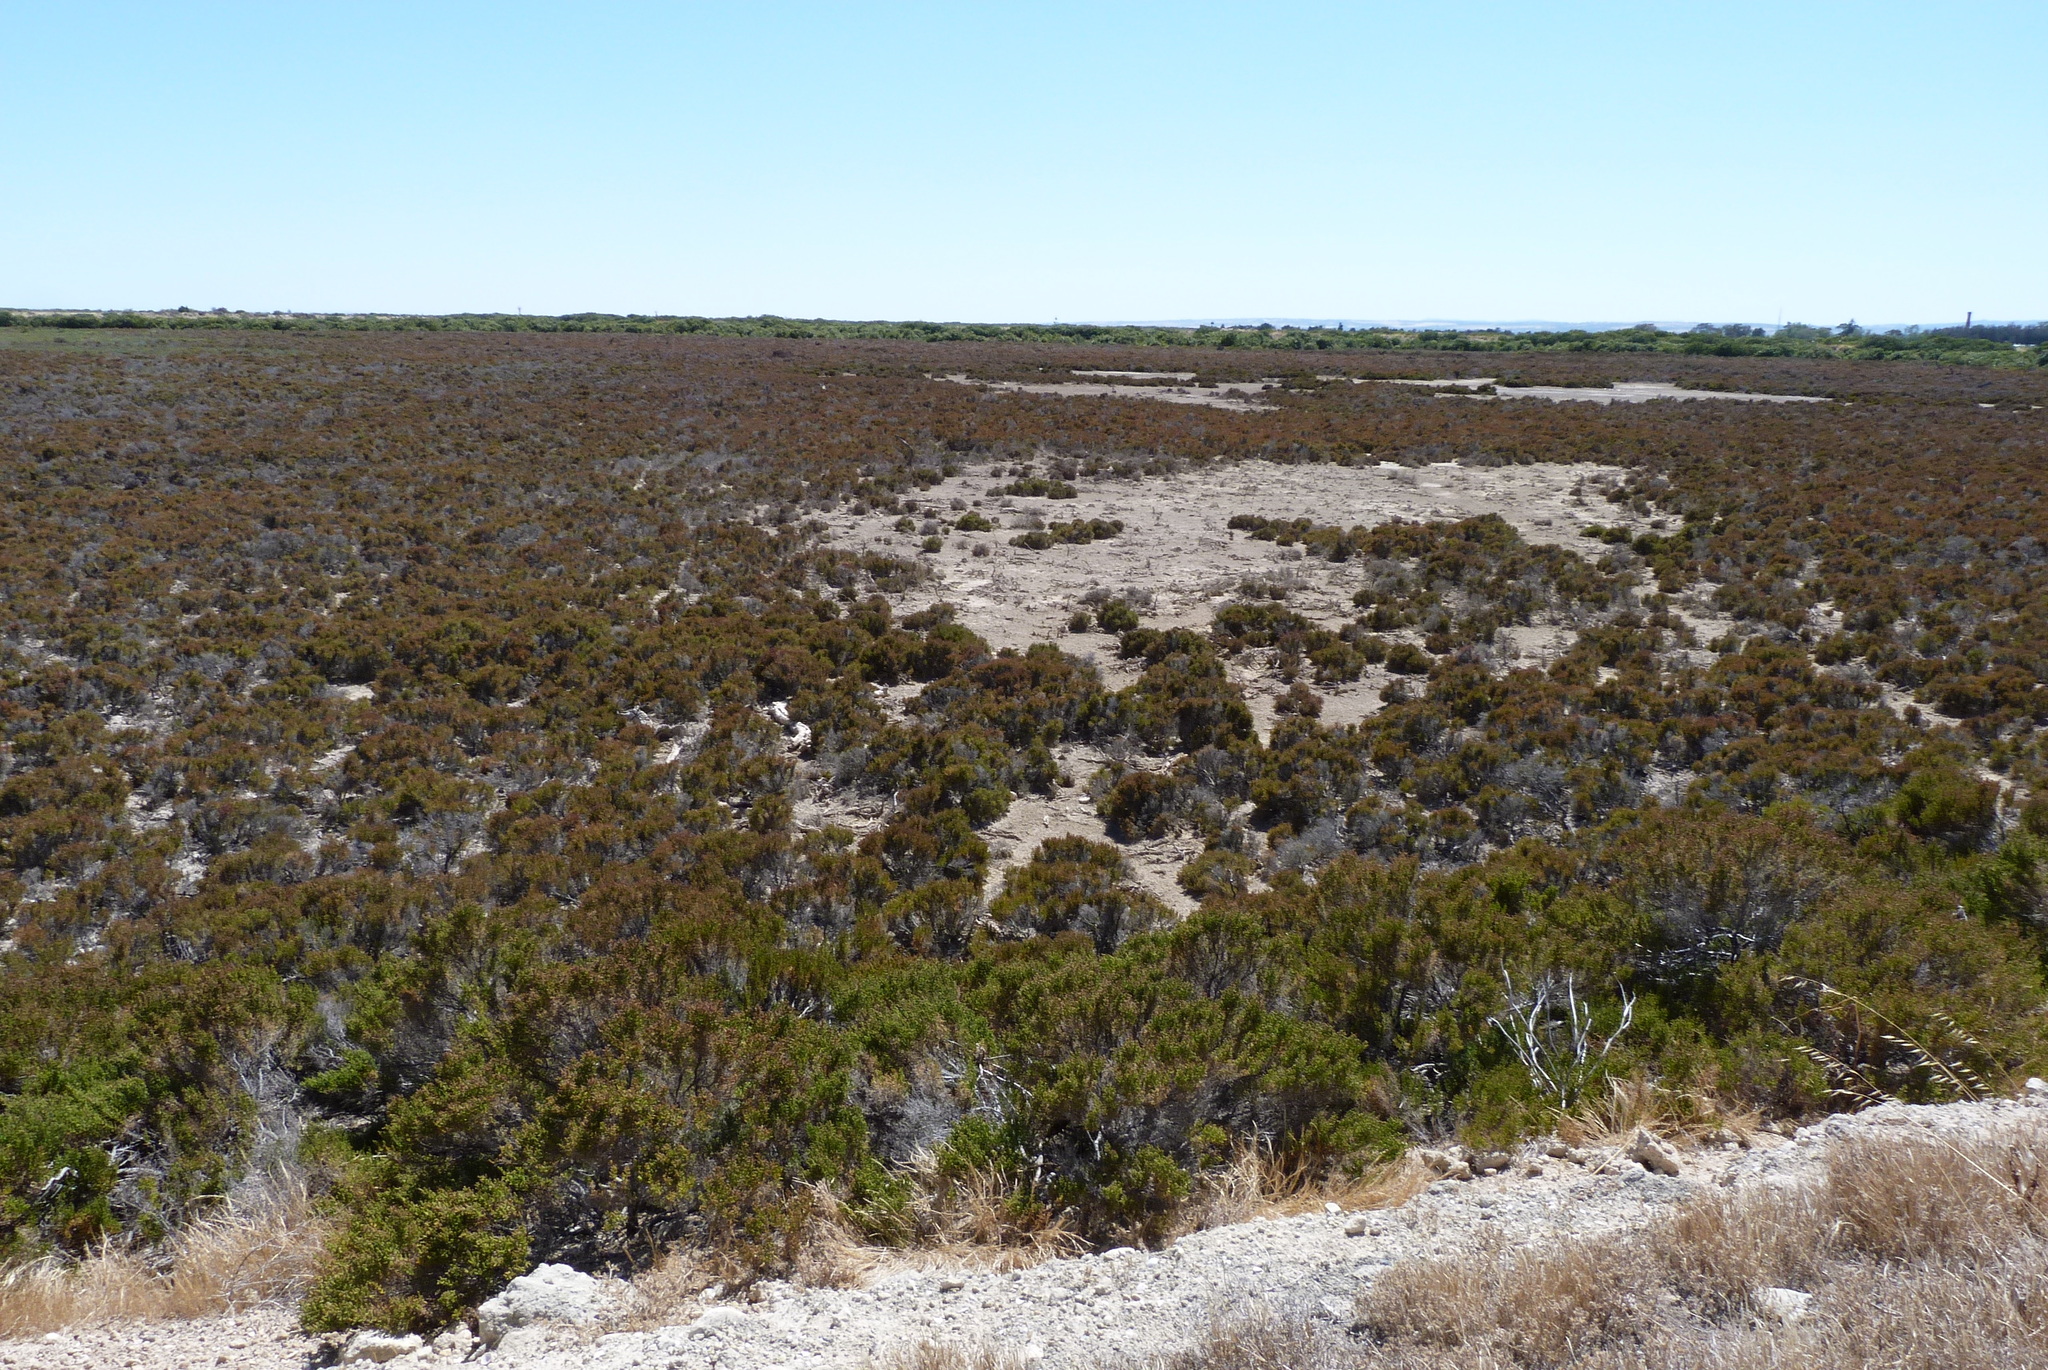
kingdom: Plantae
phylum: Tracheophyta
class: Magnoliopsida
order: Caryophyllales
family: Amaranthaceae
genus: Tecticornia
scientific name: Tecticornia halocnemoides
